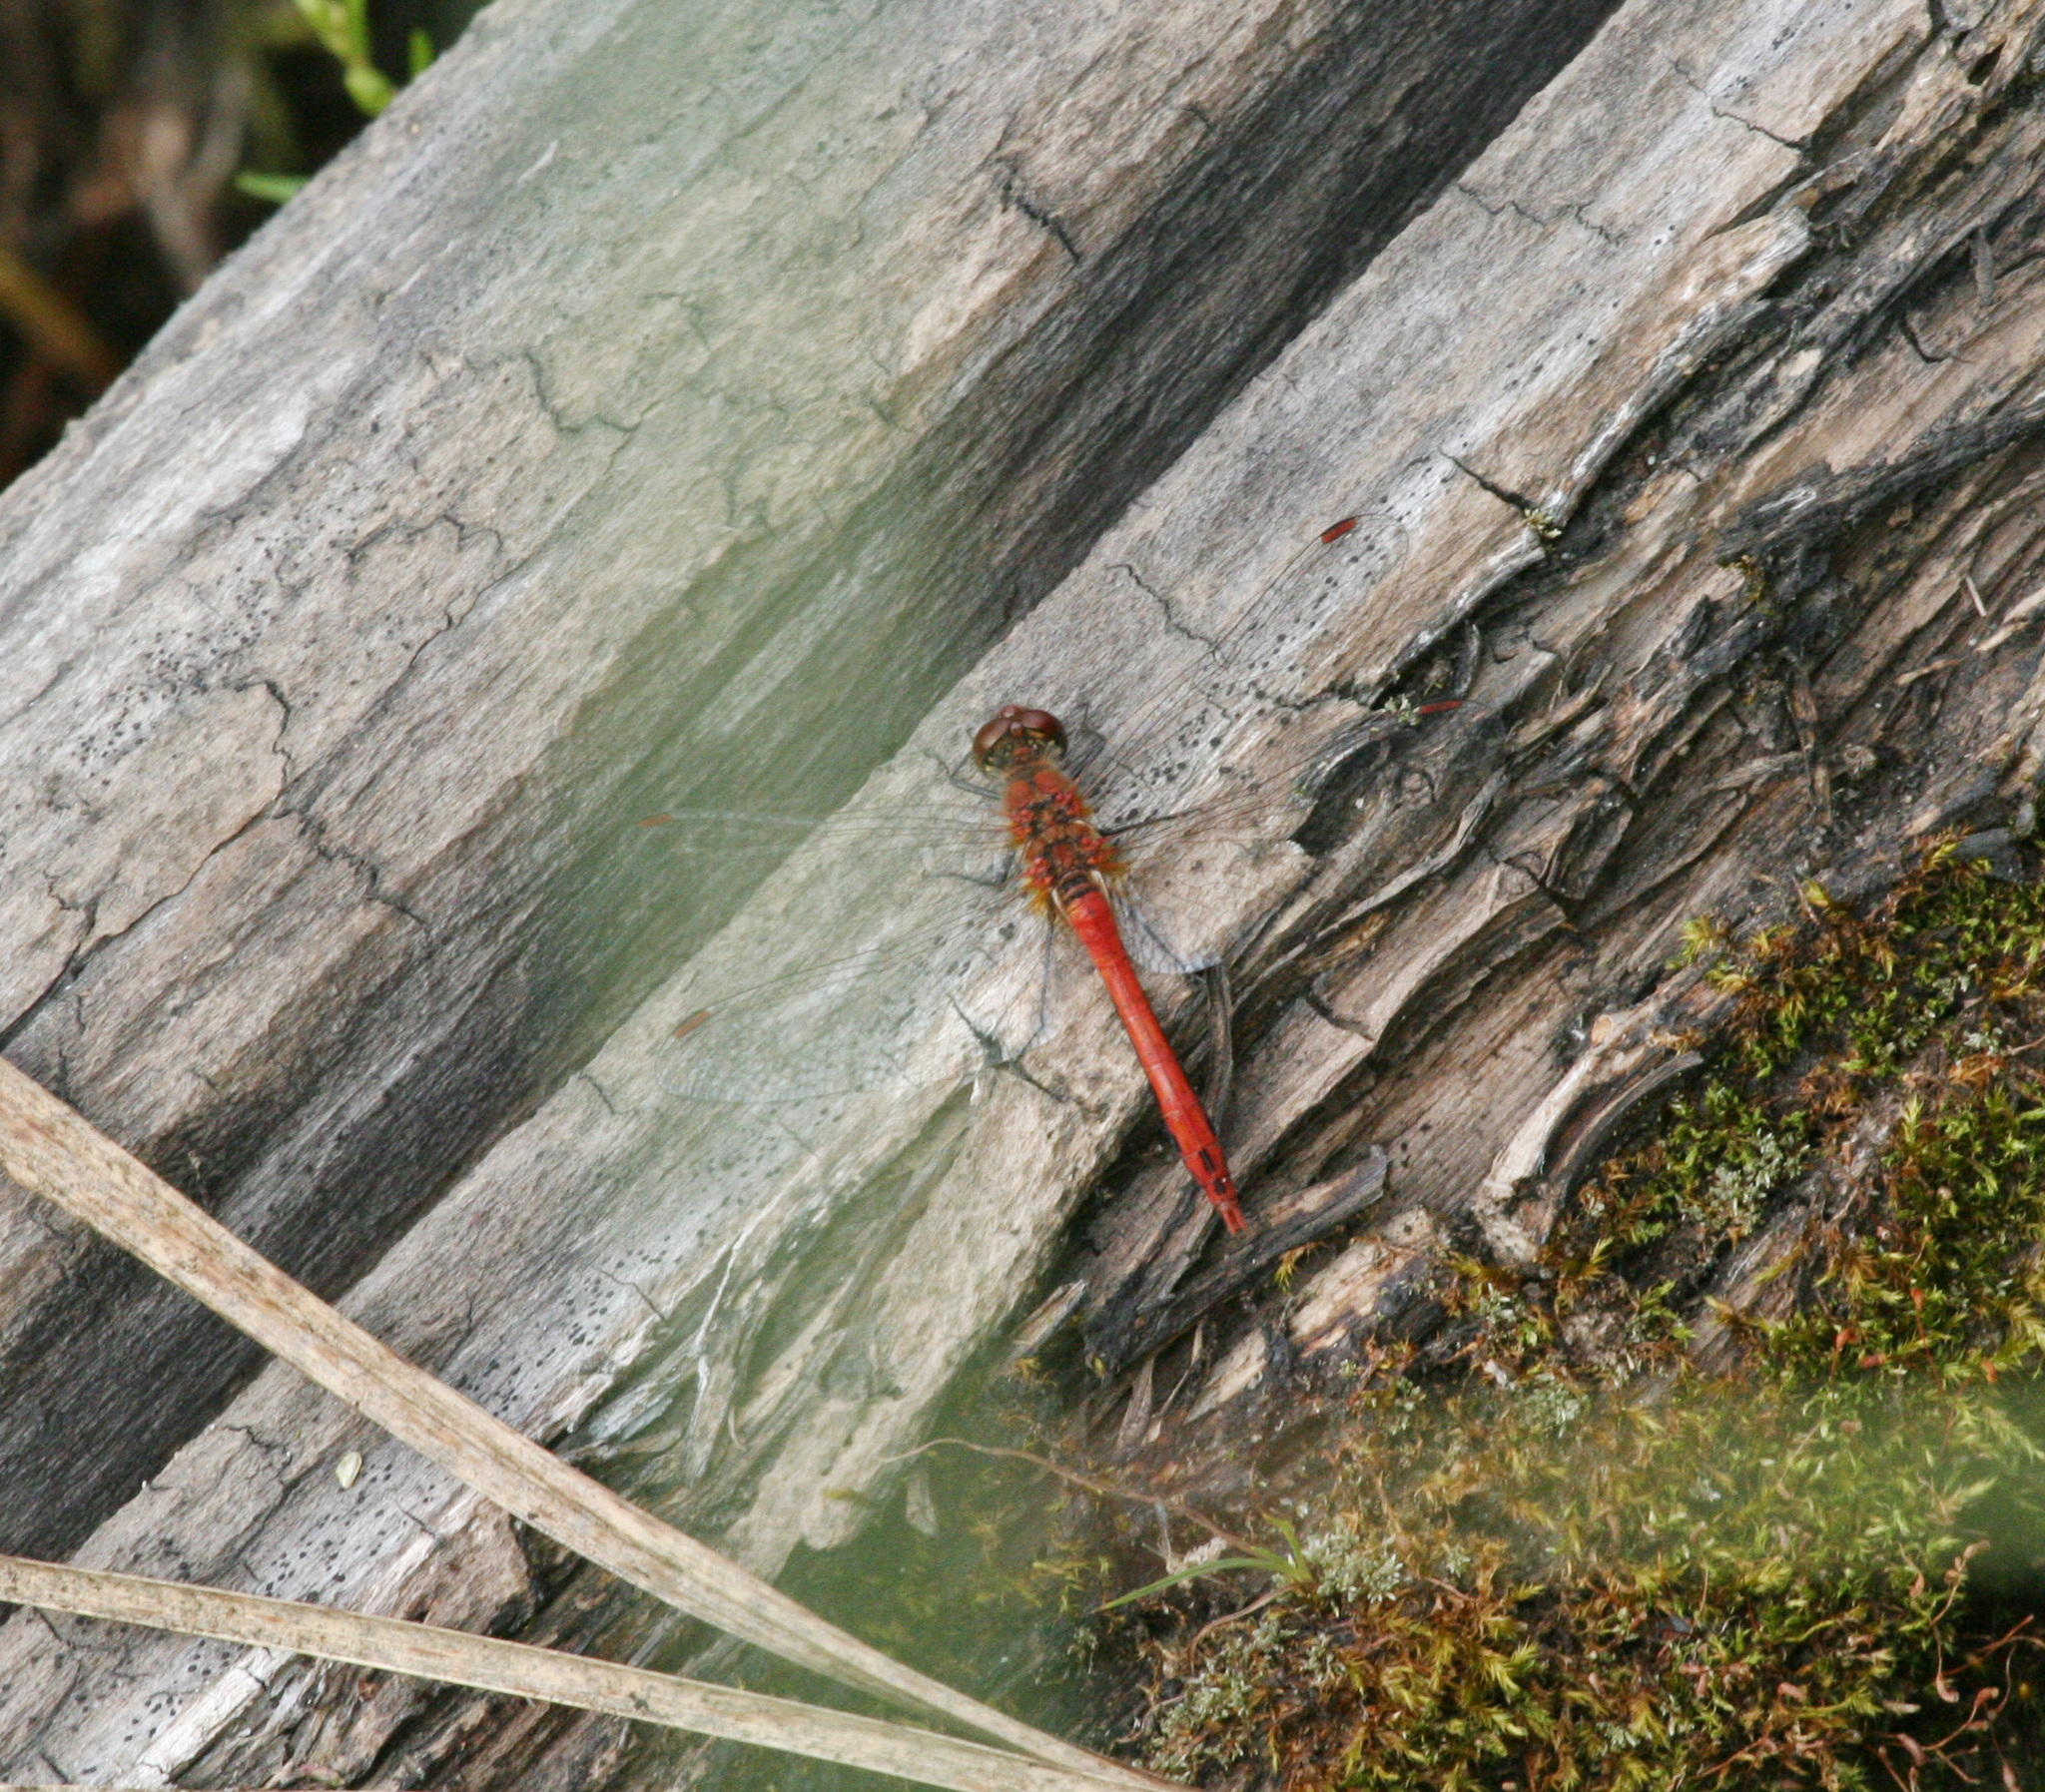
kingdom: Animalia
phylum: Arthropoda
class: Insecta
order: Odonata
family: Libellulidae
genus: Sympetrum
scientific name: Sympetrum sanguineum
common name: Ruddy darter
